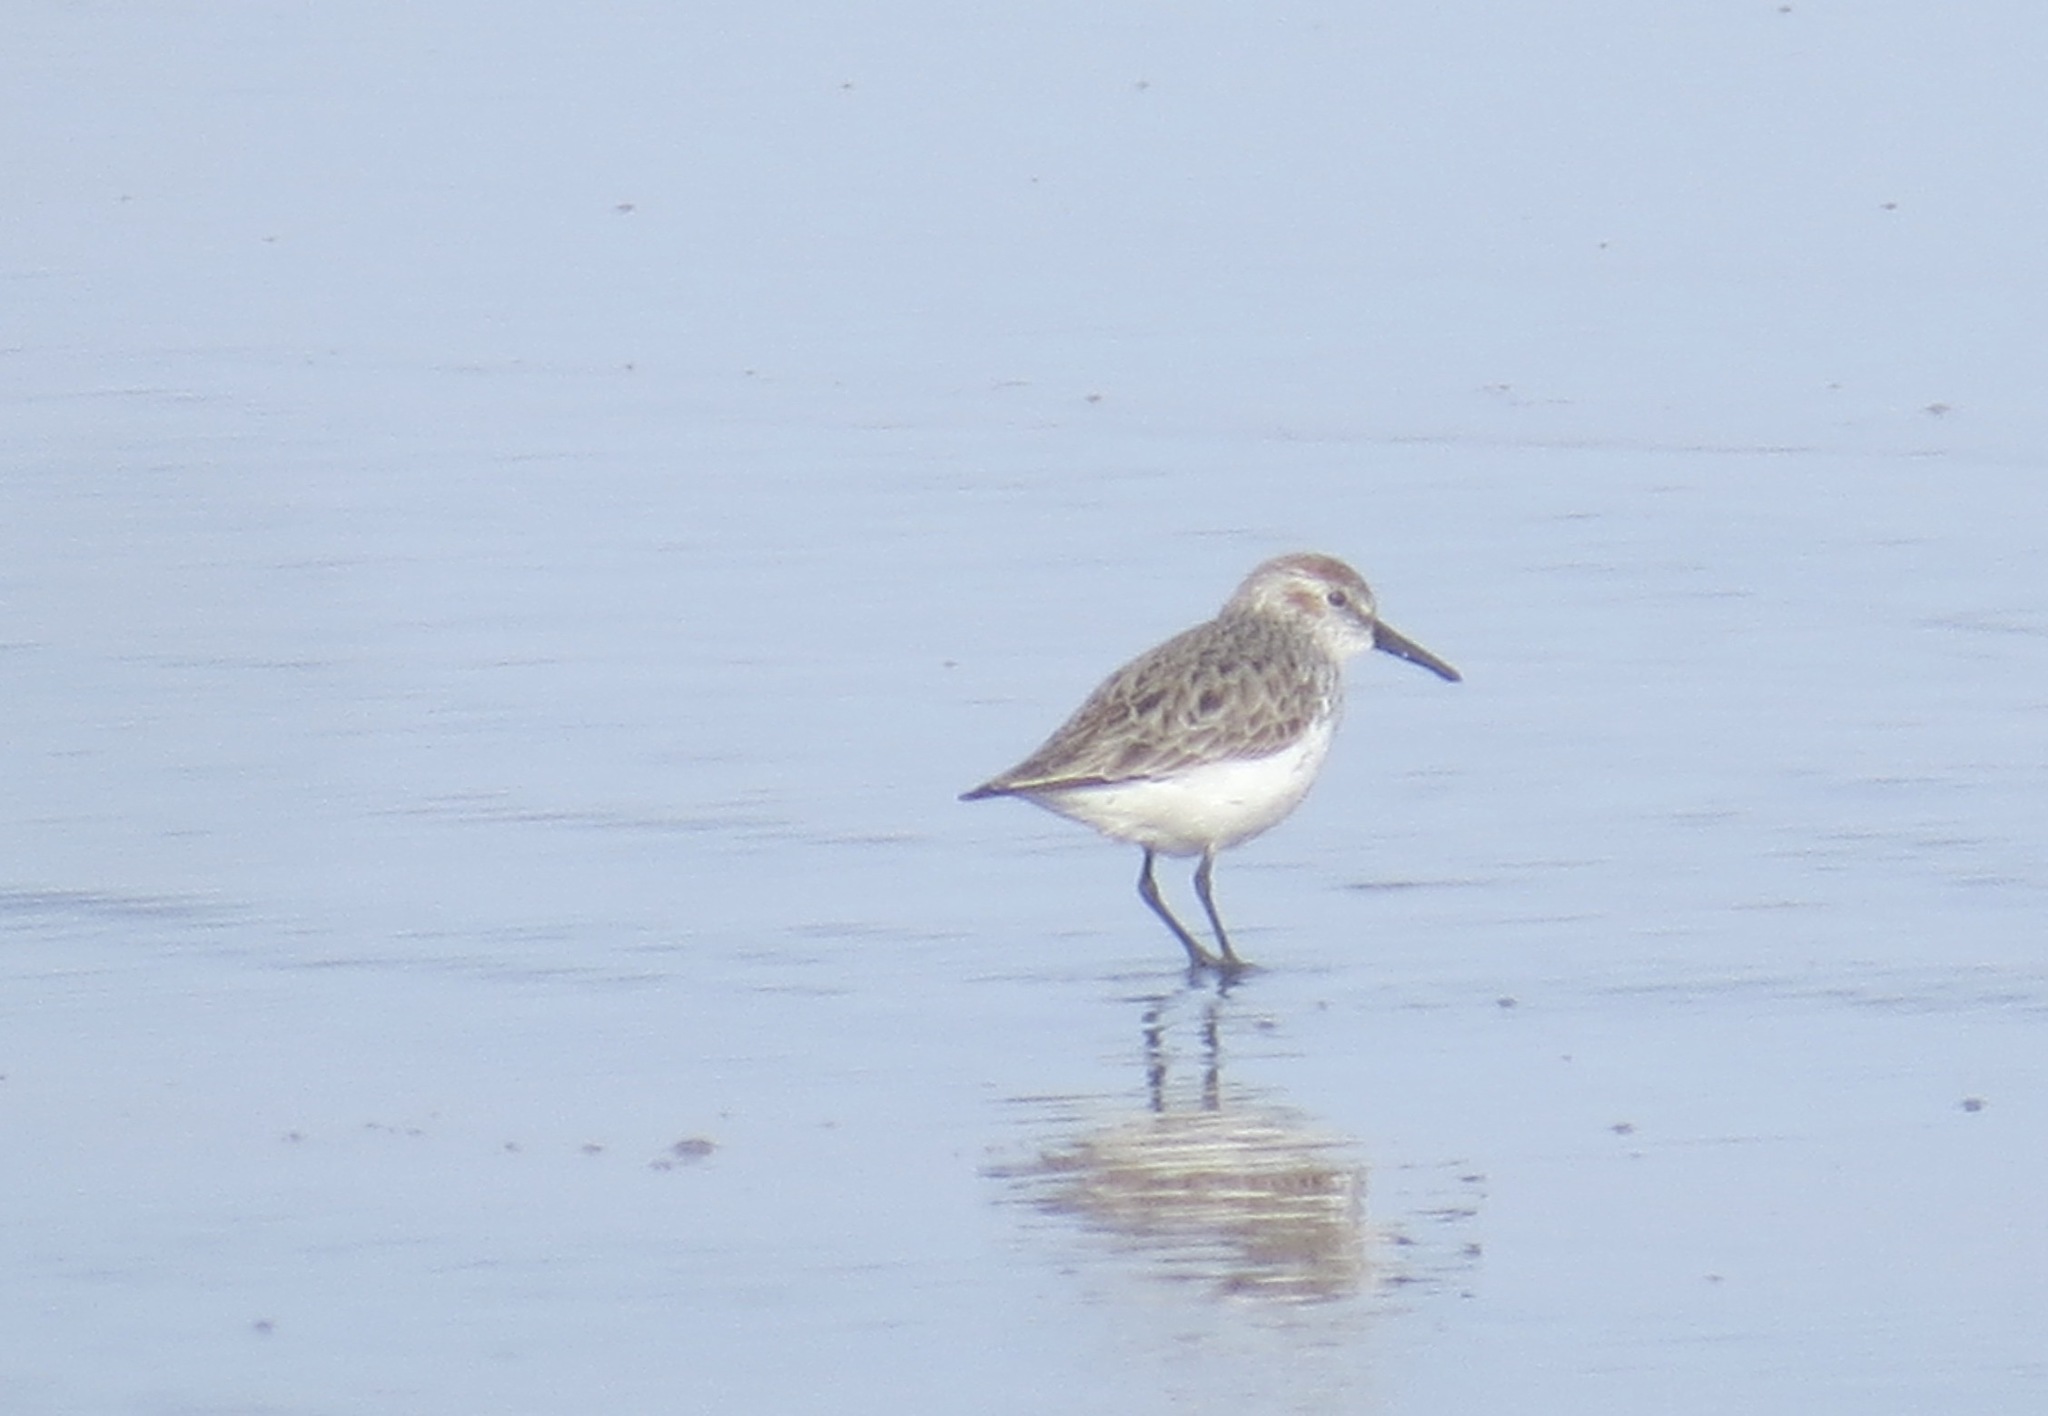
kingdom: Animalia
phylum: Chordata
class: Aves
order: Charadriiformes
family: Scolopacidae
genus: Calidris
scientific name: Calidris mauri
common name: Western sandpiper
